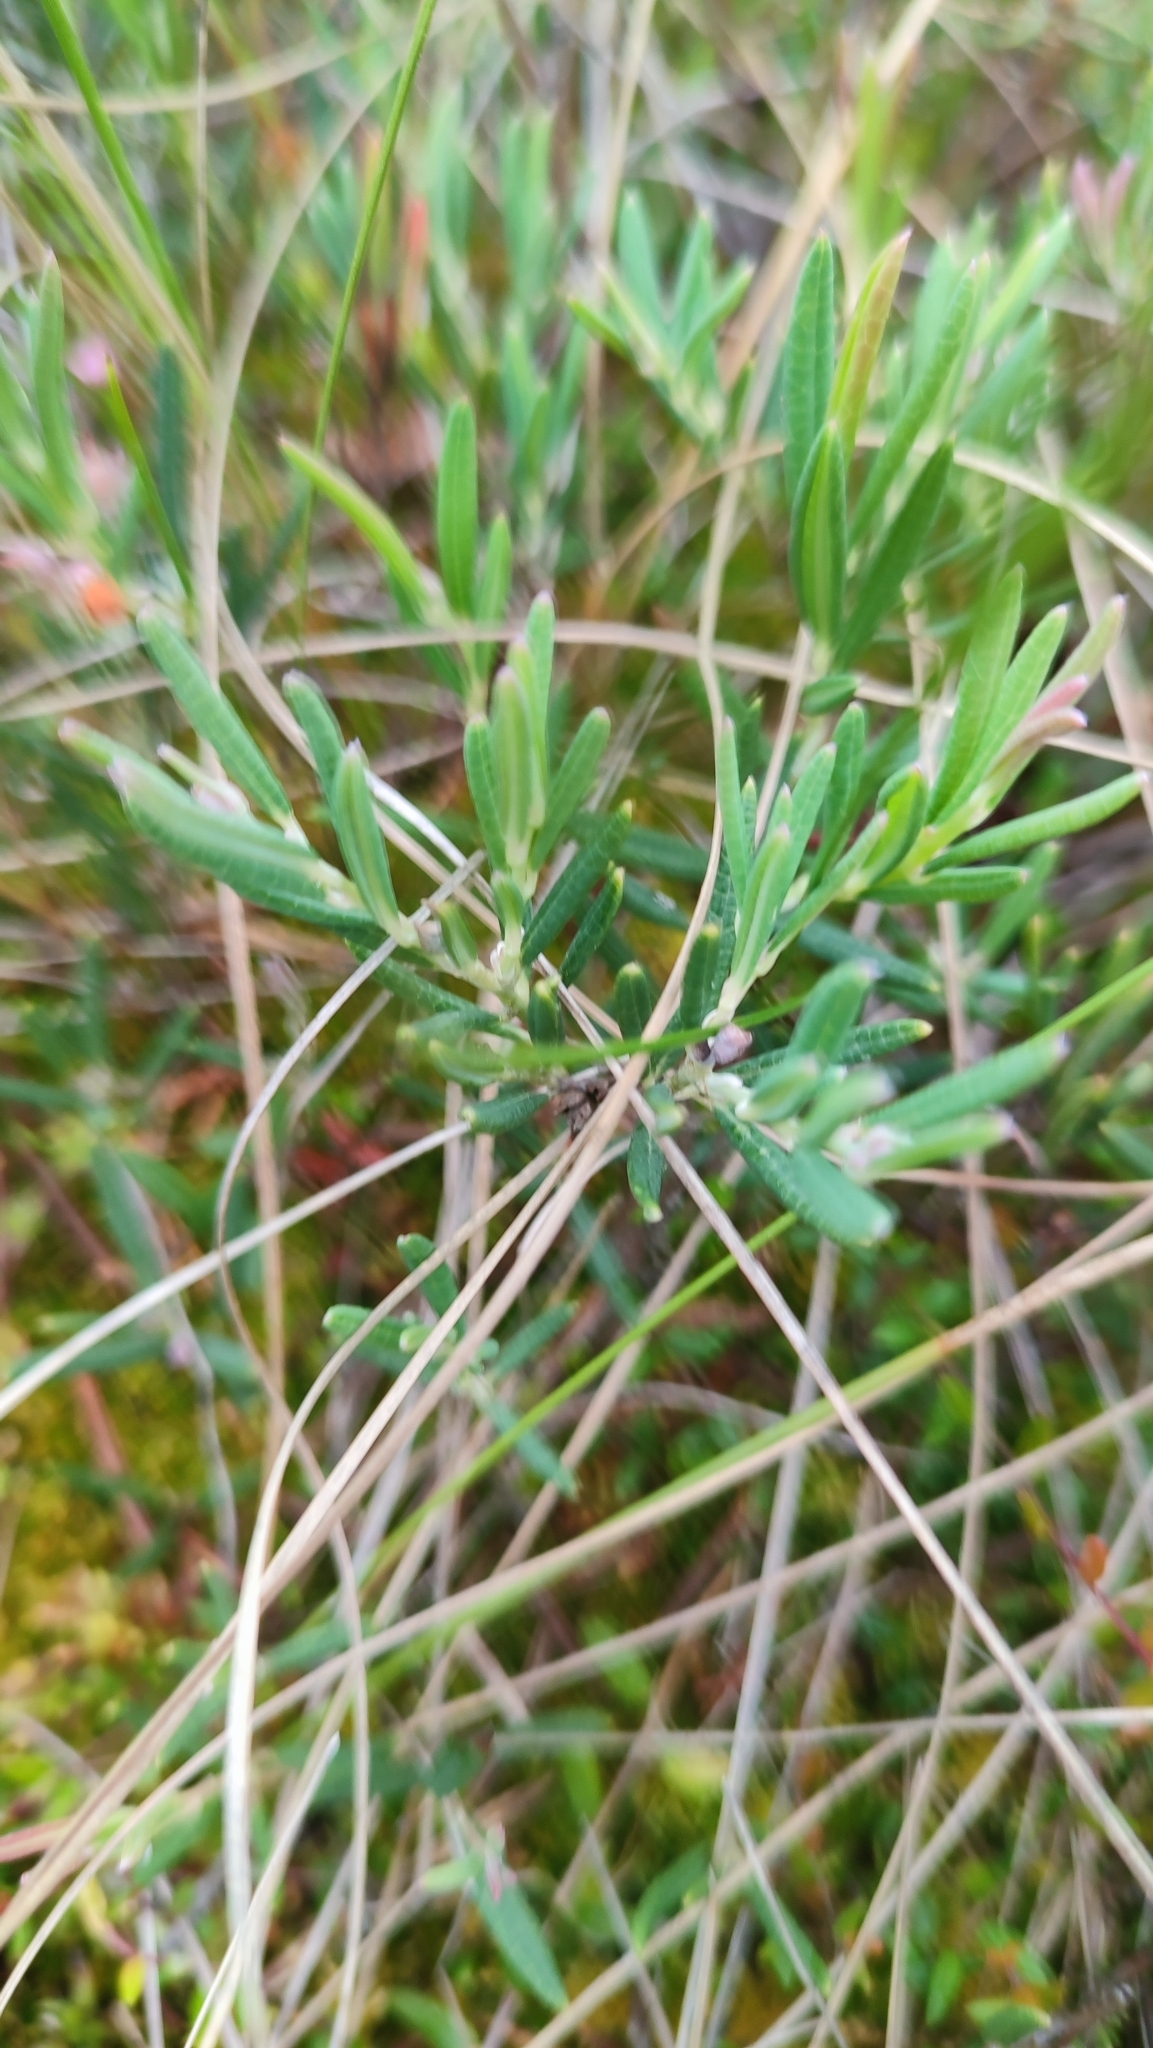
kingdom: Plantae
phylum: Tracheophyta
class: Magnoliopsida
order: Ericales
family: Ericaceae
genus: Andromeda
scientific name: Andromeda polifolia
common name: Bog-rosemary
